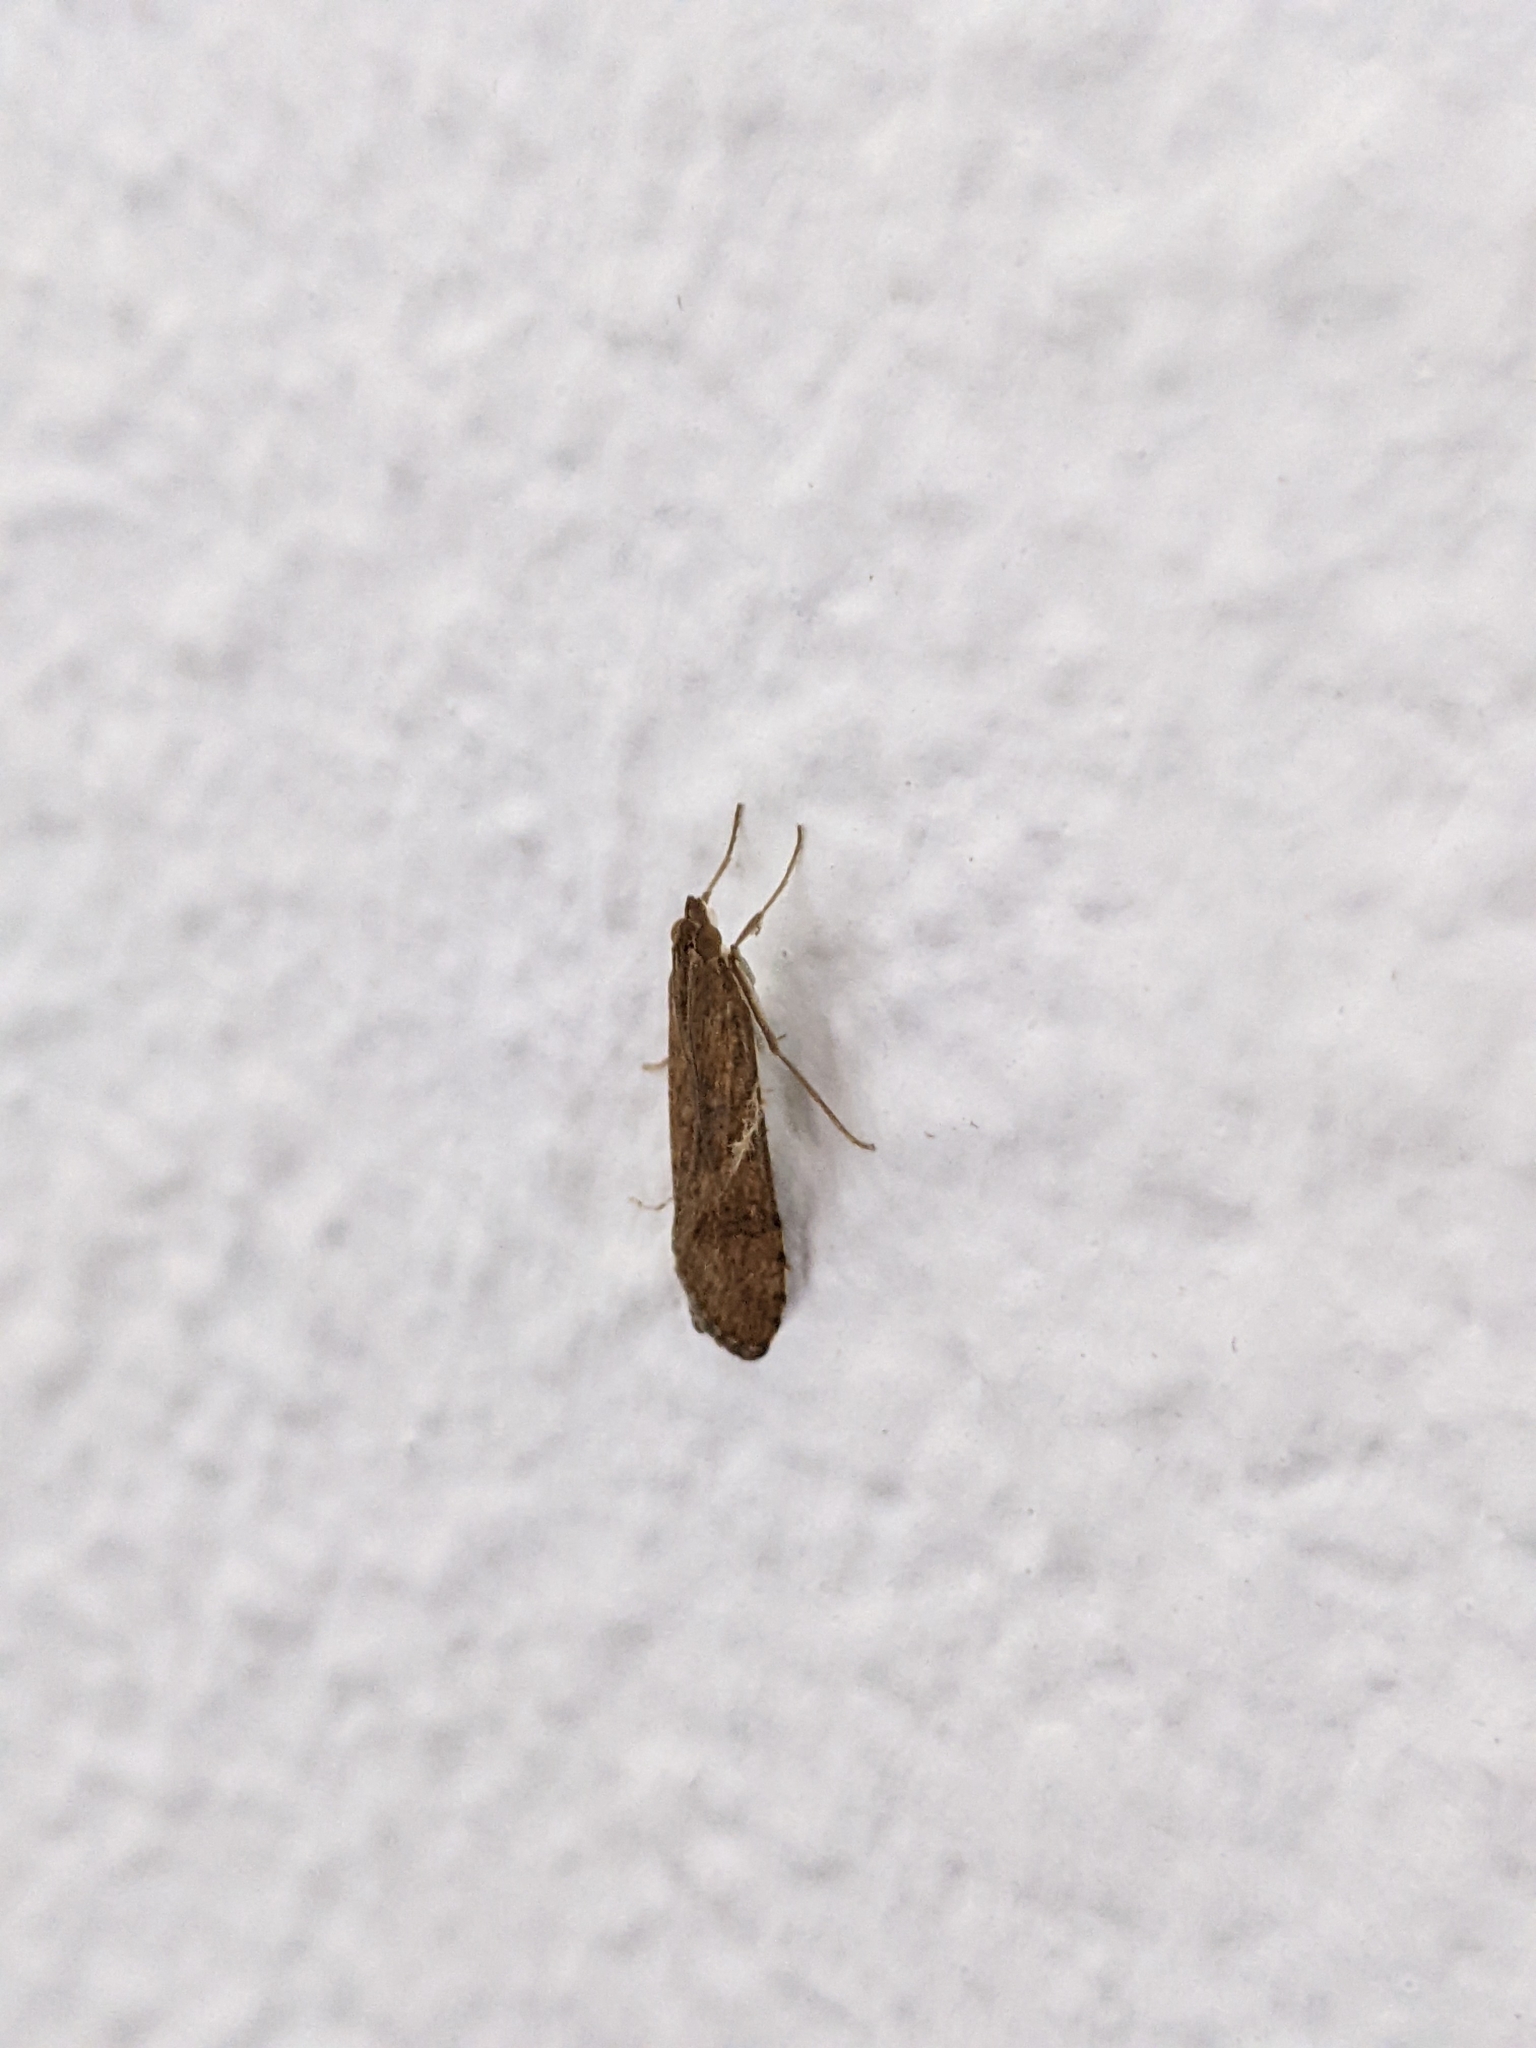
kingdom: Animalia
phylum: Arthropoda
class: Insecta
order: Lepidoptera
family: Crambidae
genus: Nomophila
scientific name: Nomophila noctuella
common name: Rush veneer
